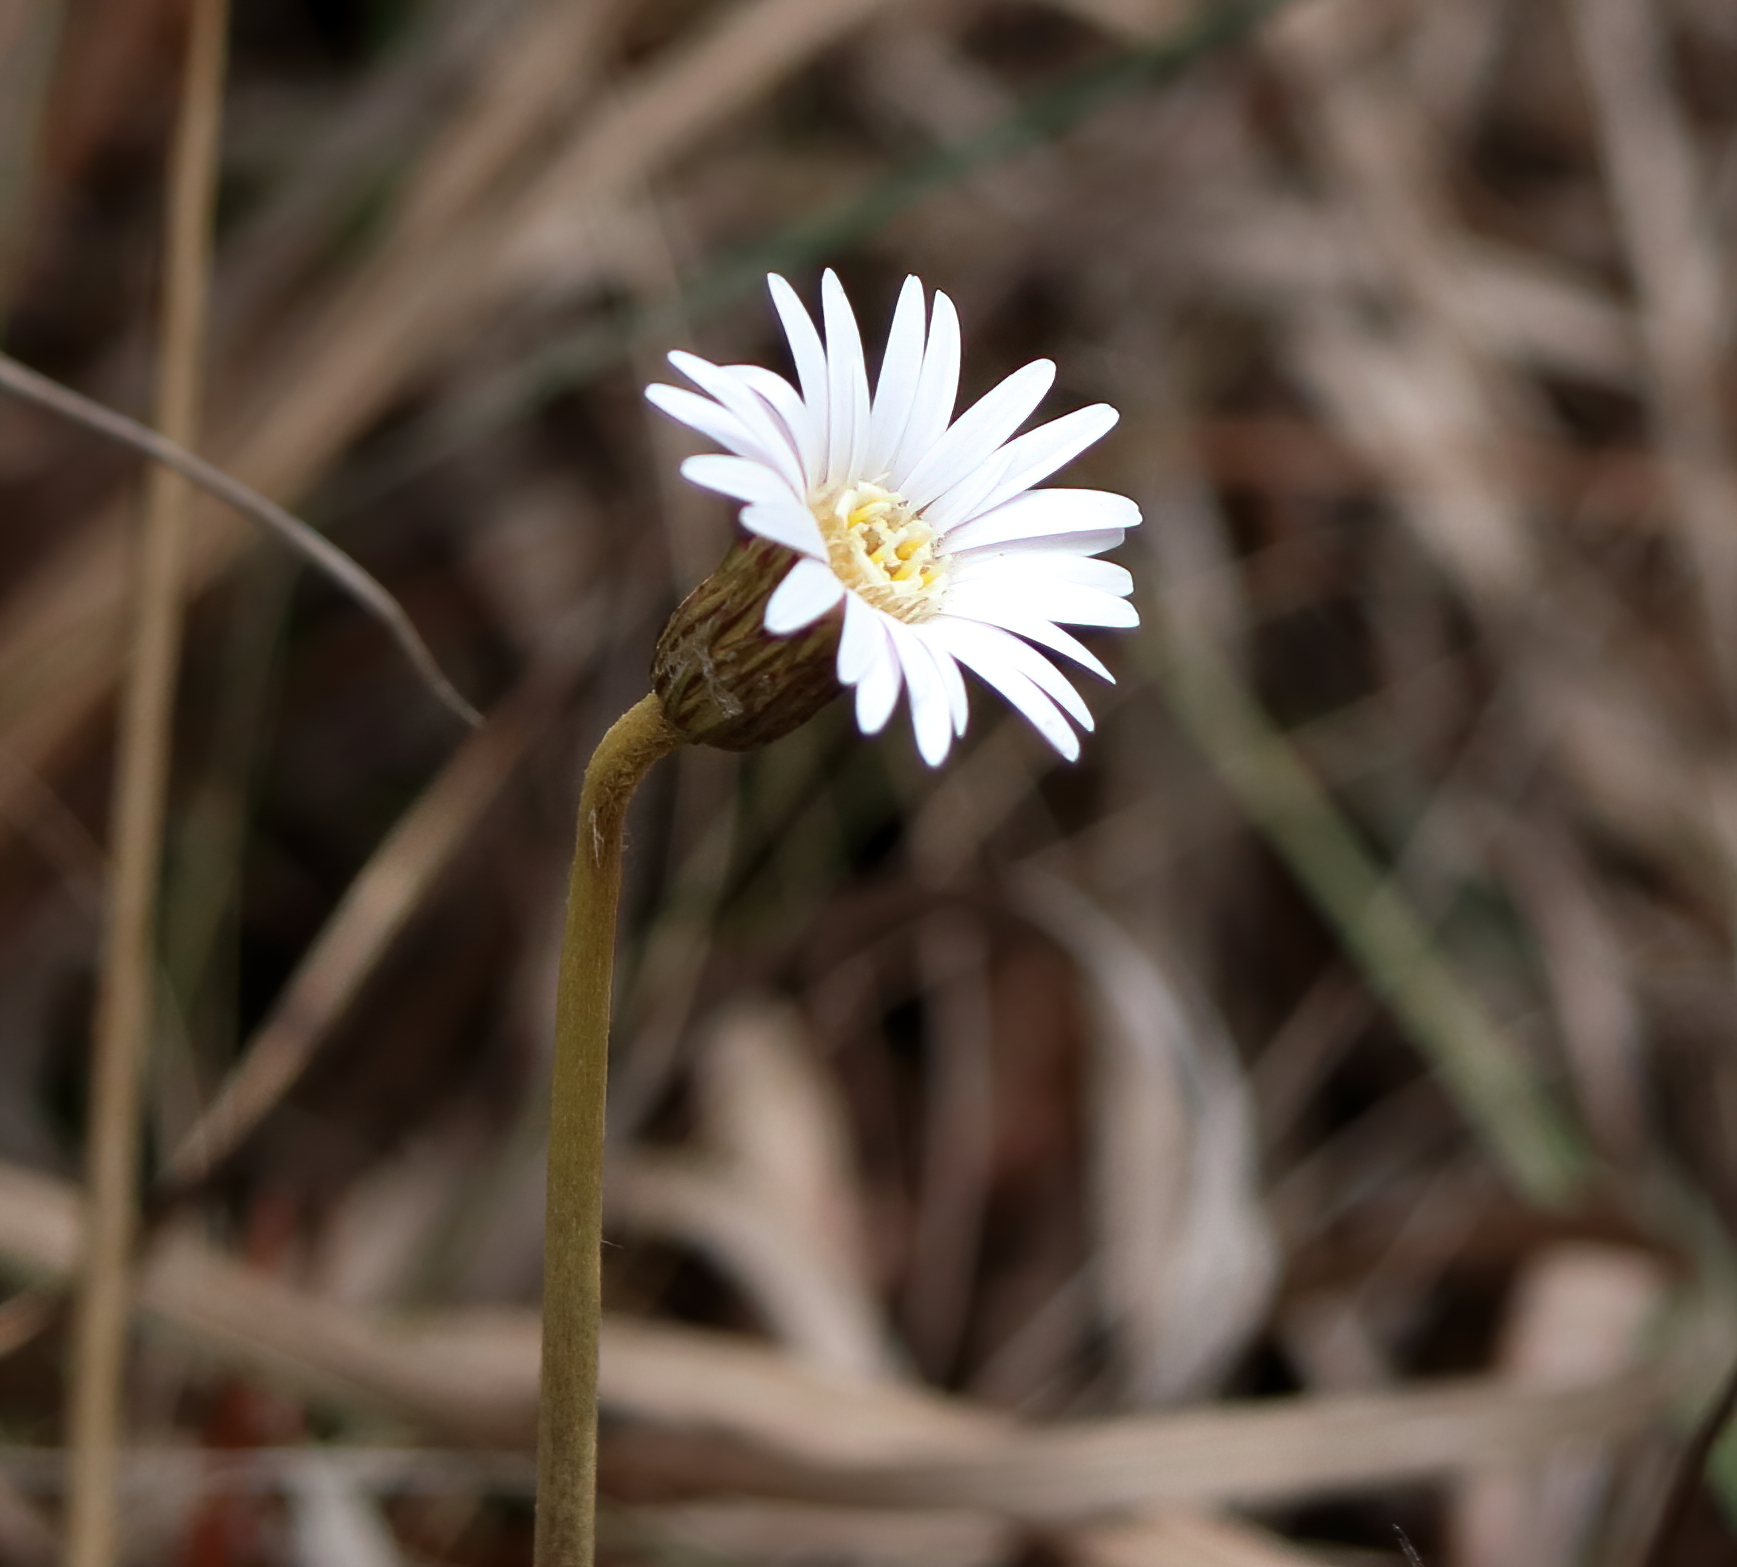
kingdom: Plantae
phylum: Tracheophyta
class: Magnoliopsida
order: Asterales
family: Asteraceae
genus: Chaptalia
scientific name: Chaptalia tomentosa
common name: Woolly sunbonnet
